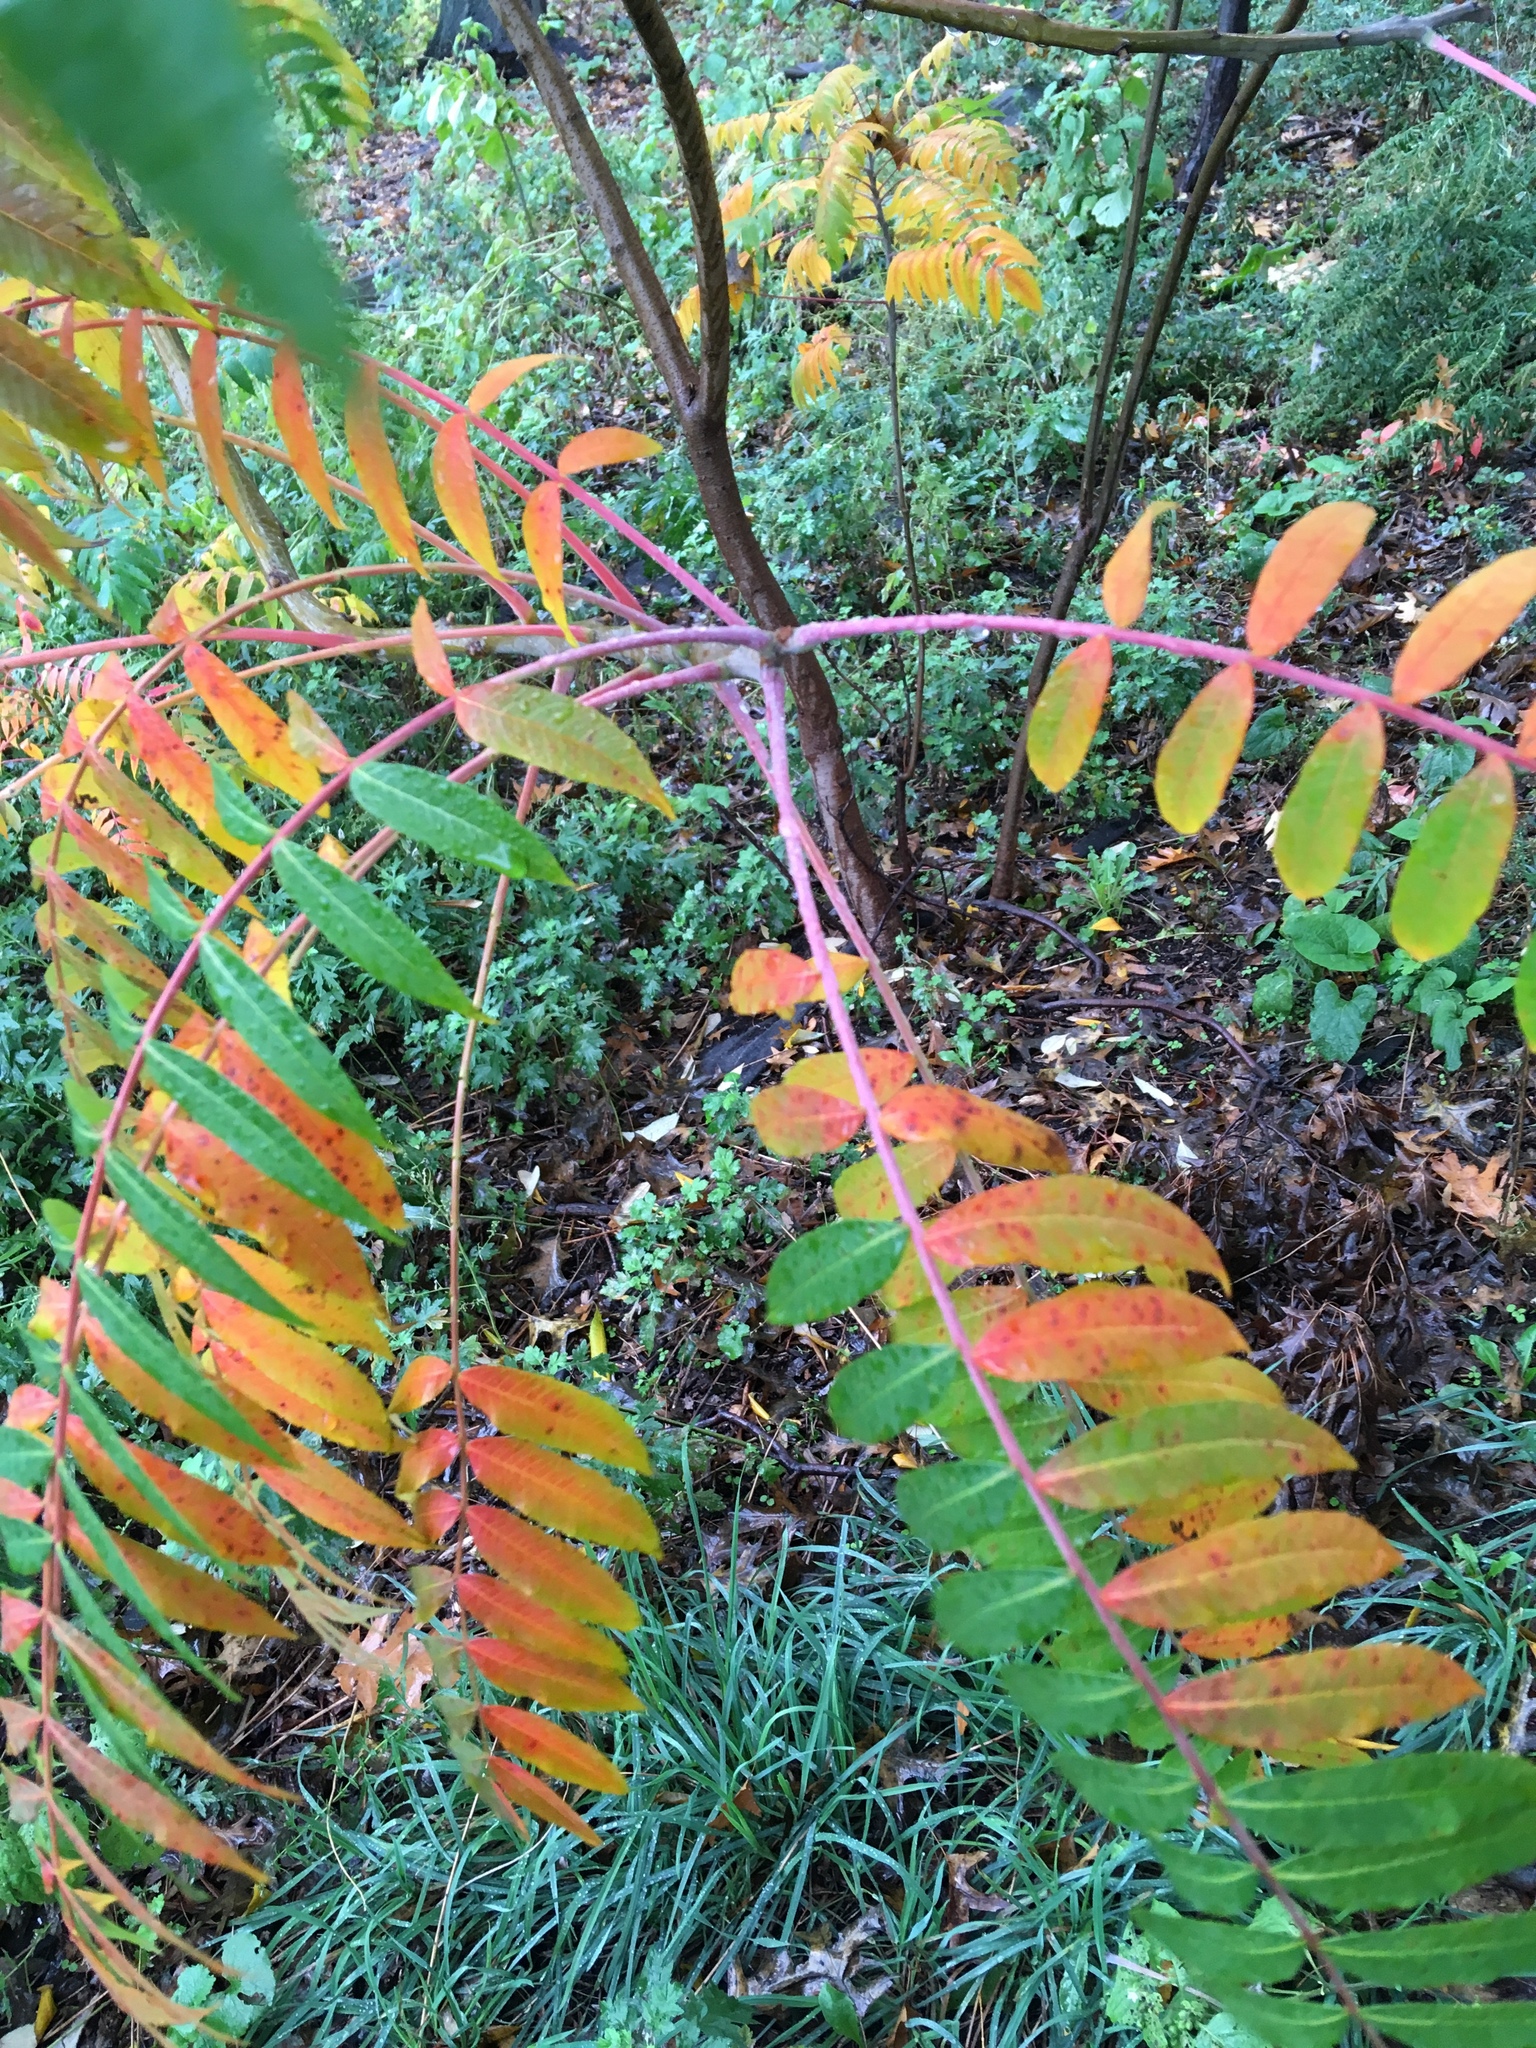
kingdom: Plantae
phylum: Tracheophyta
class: Magnoliopsida
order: Sapindales
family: Anacardiaceae
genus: Rhus
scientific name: Rhus glabra
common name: Scarlet sumac
